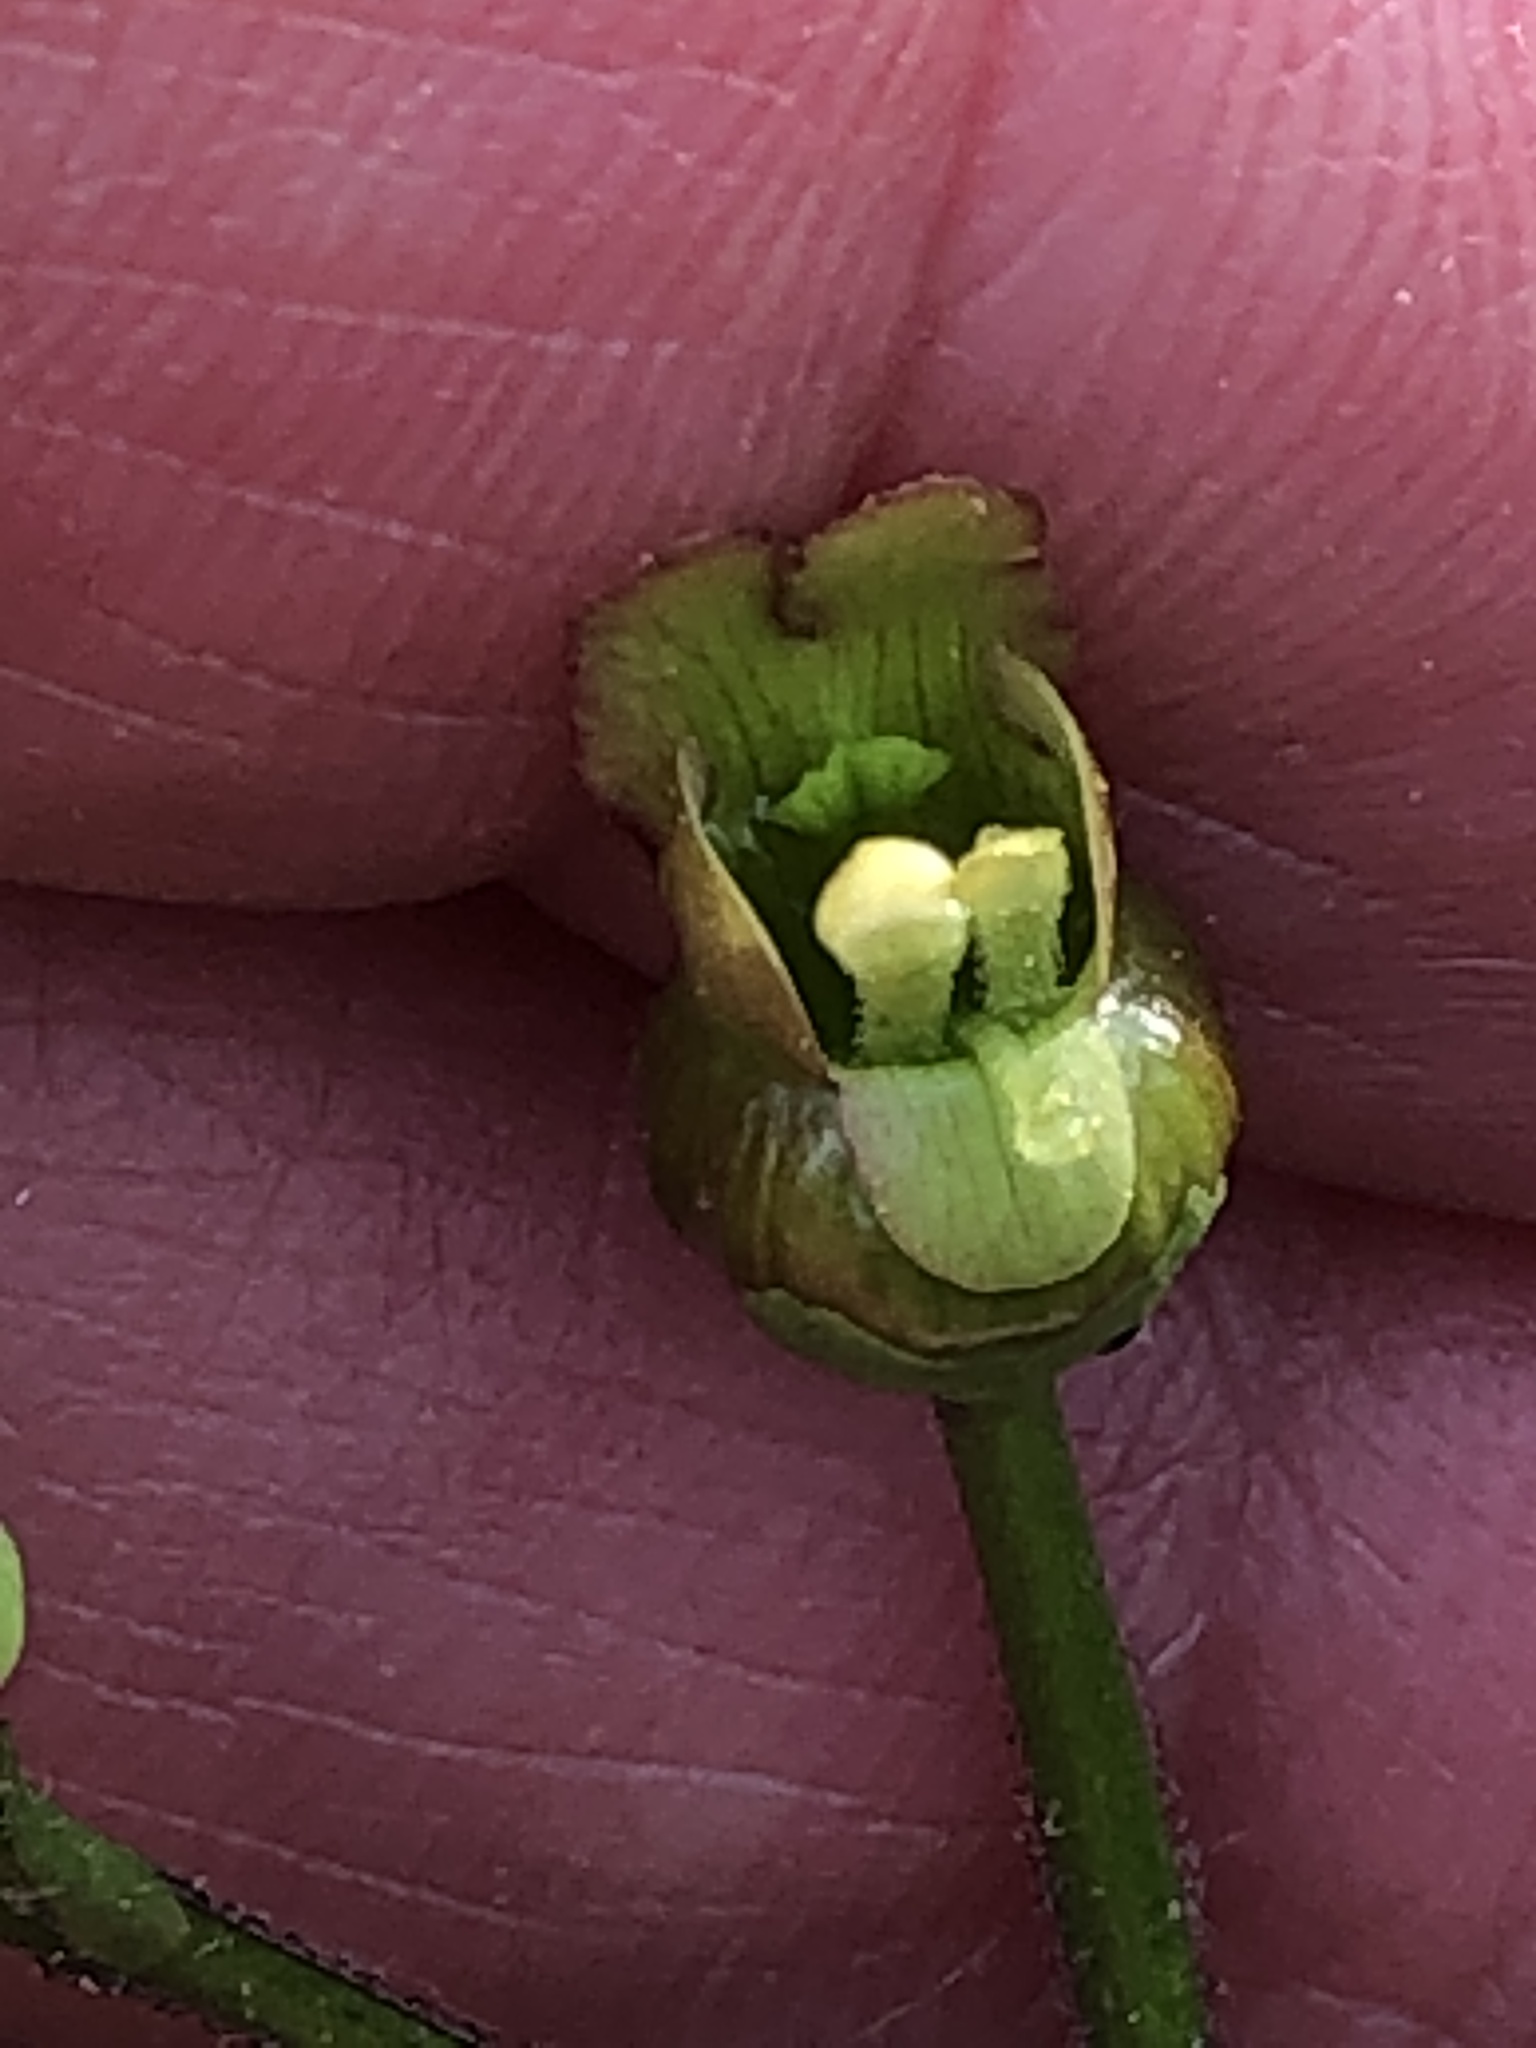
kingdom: Plantae
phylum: Tracheophyta
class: Magnoliopsida
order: Lamiales
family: Scrophulariaceae
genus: Scrophularia
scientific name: Scrophularia lanceolata
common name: American figwort
